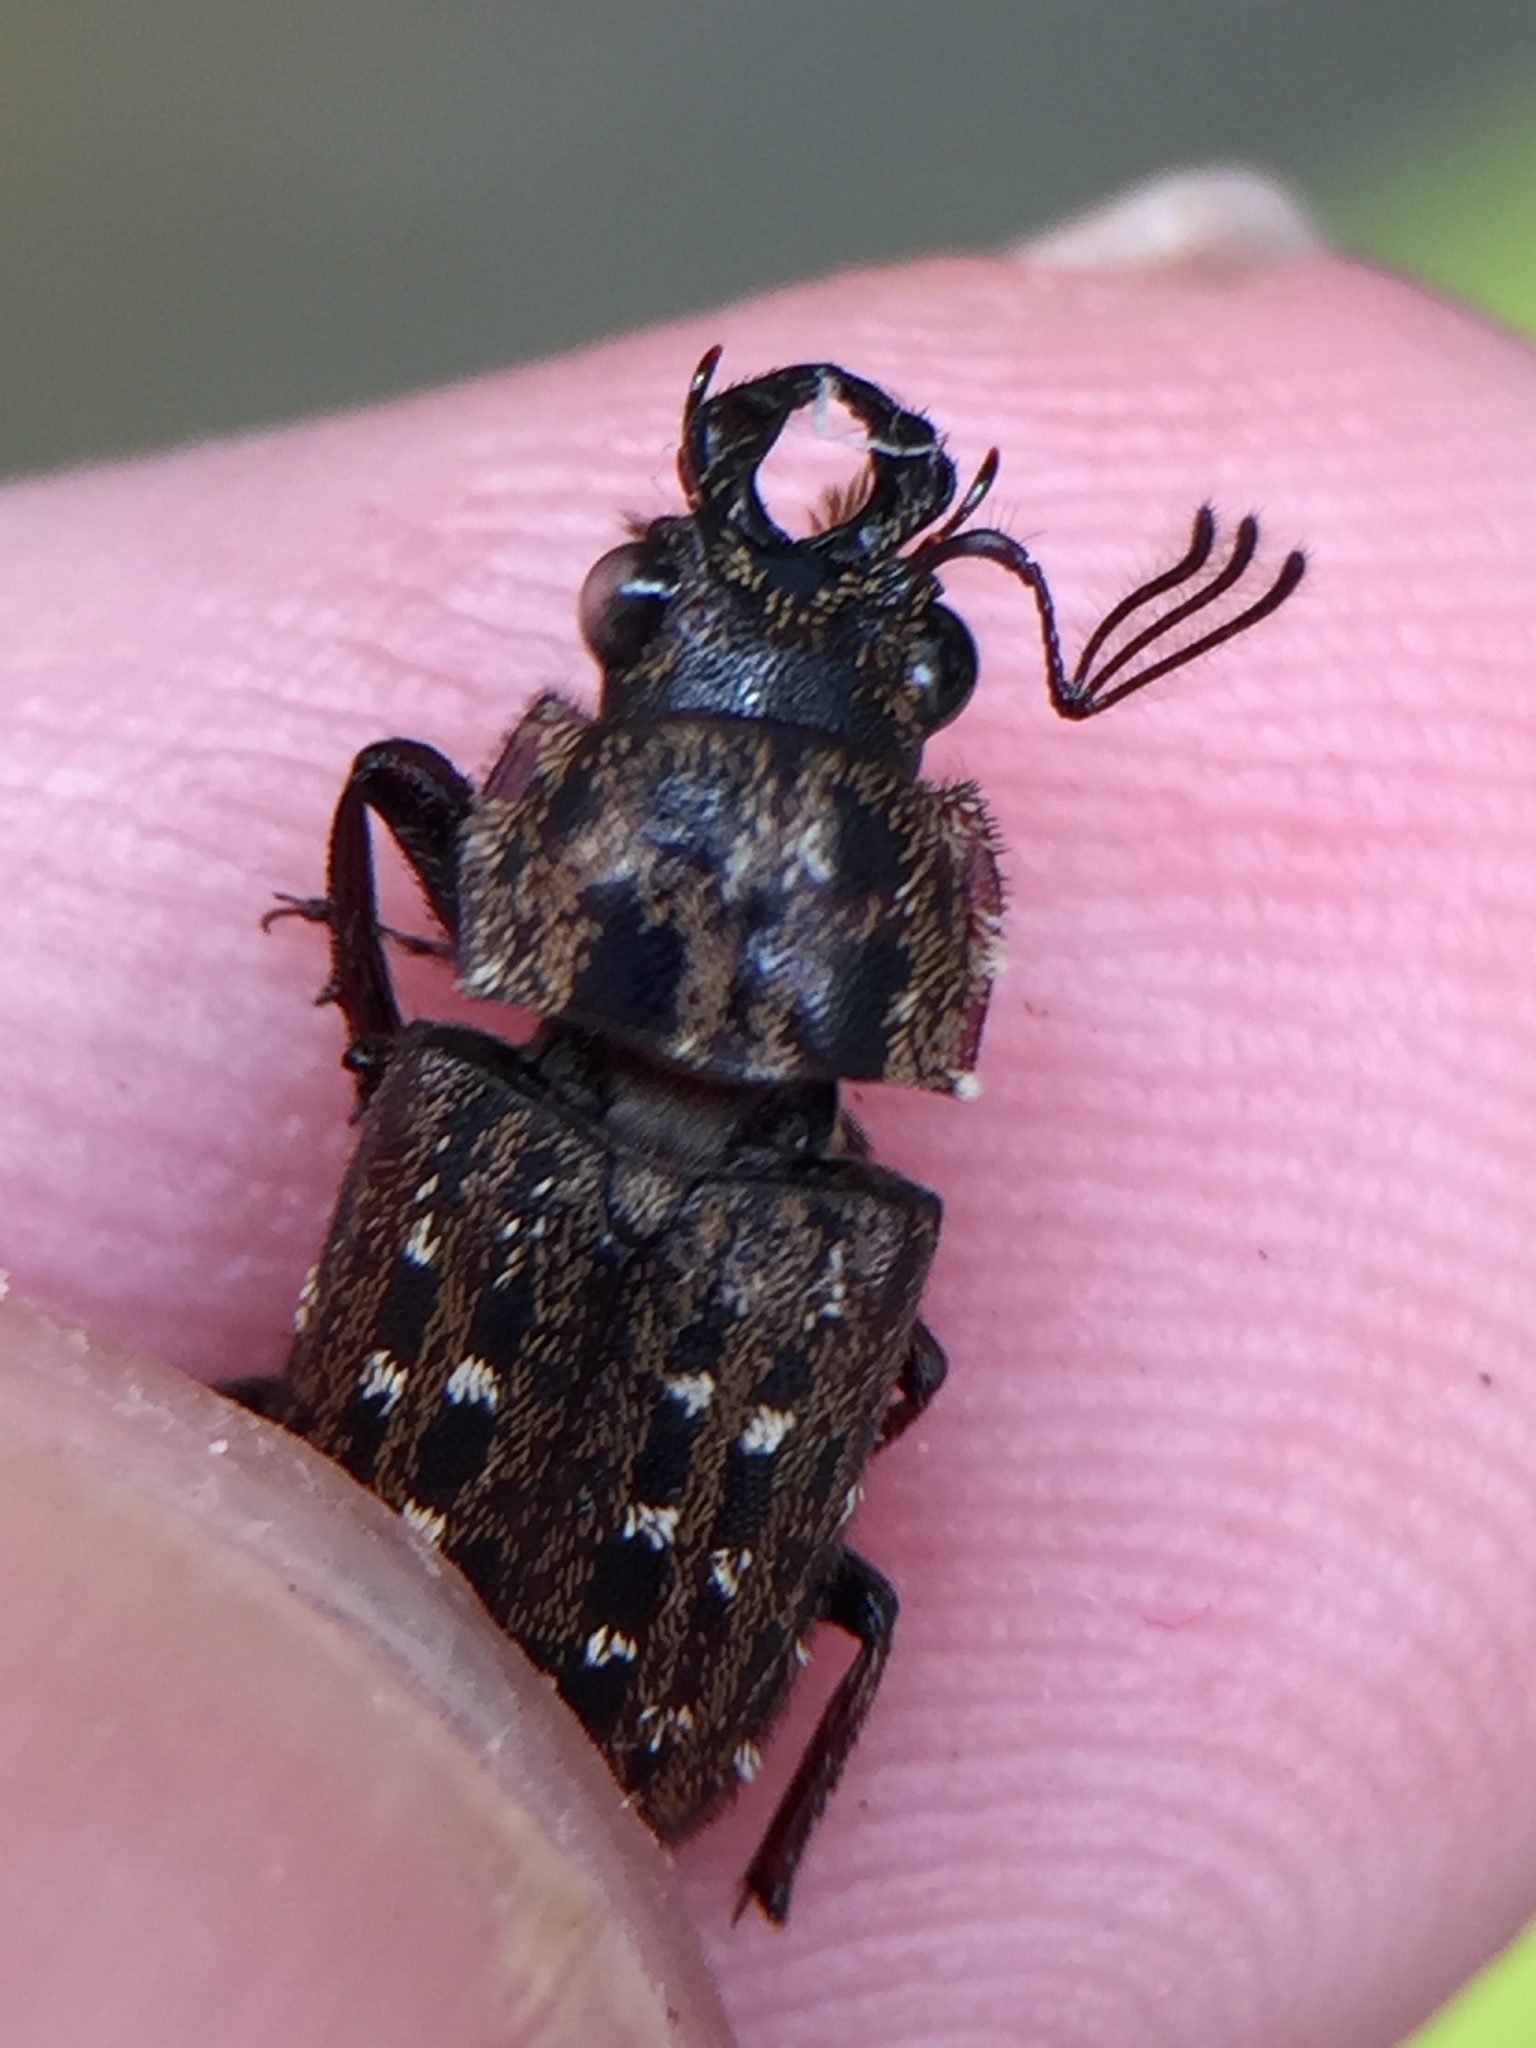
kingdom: Animalia
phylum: Arthropoda
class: Insecta
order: Coleoptera
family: Lucanidae
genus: Mitophyllus
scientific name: Mitophyllus arcuatus
